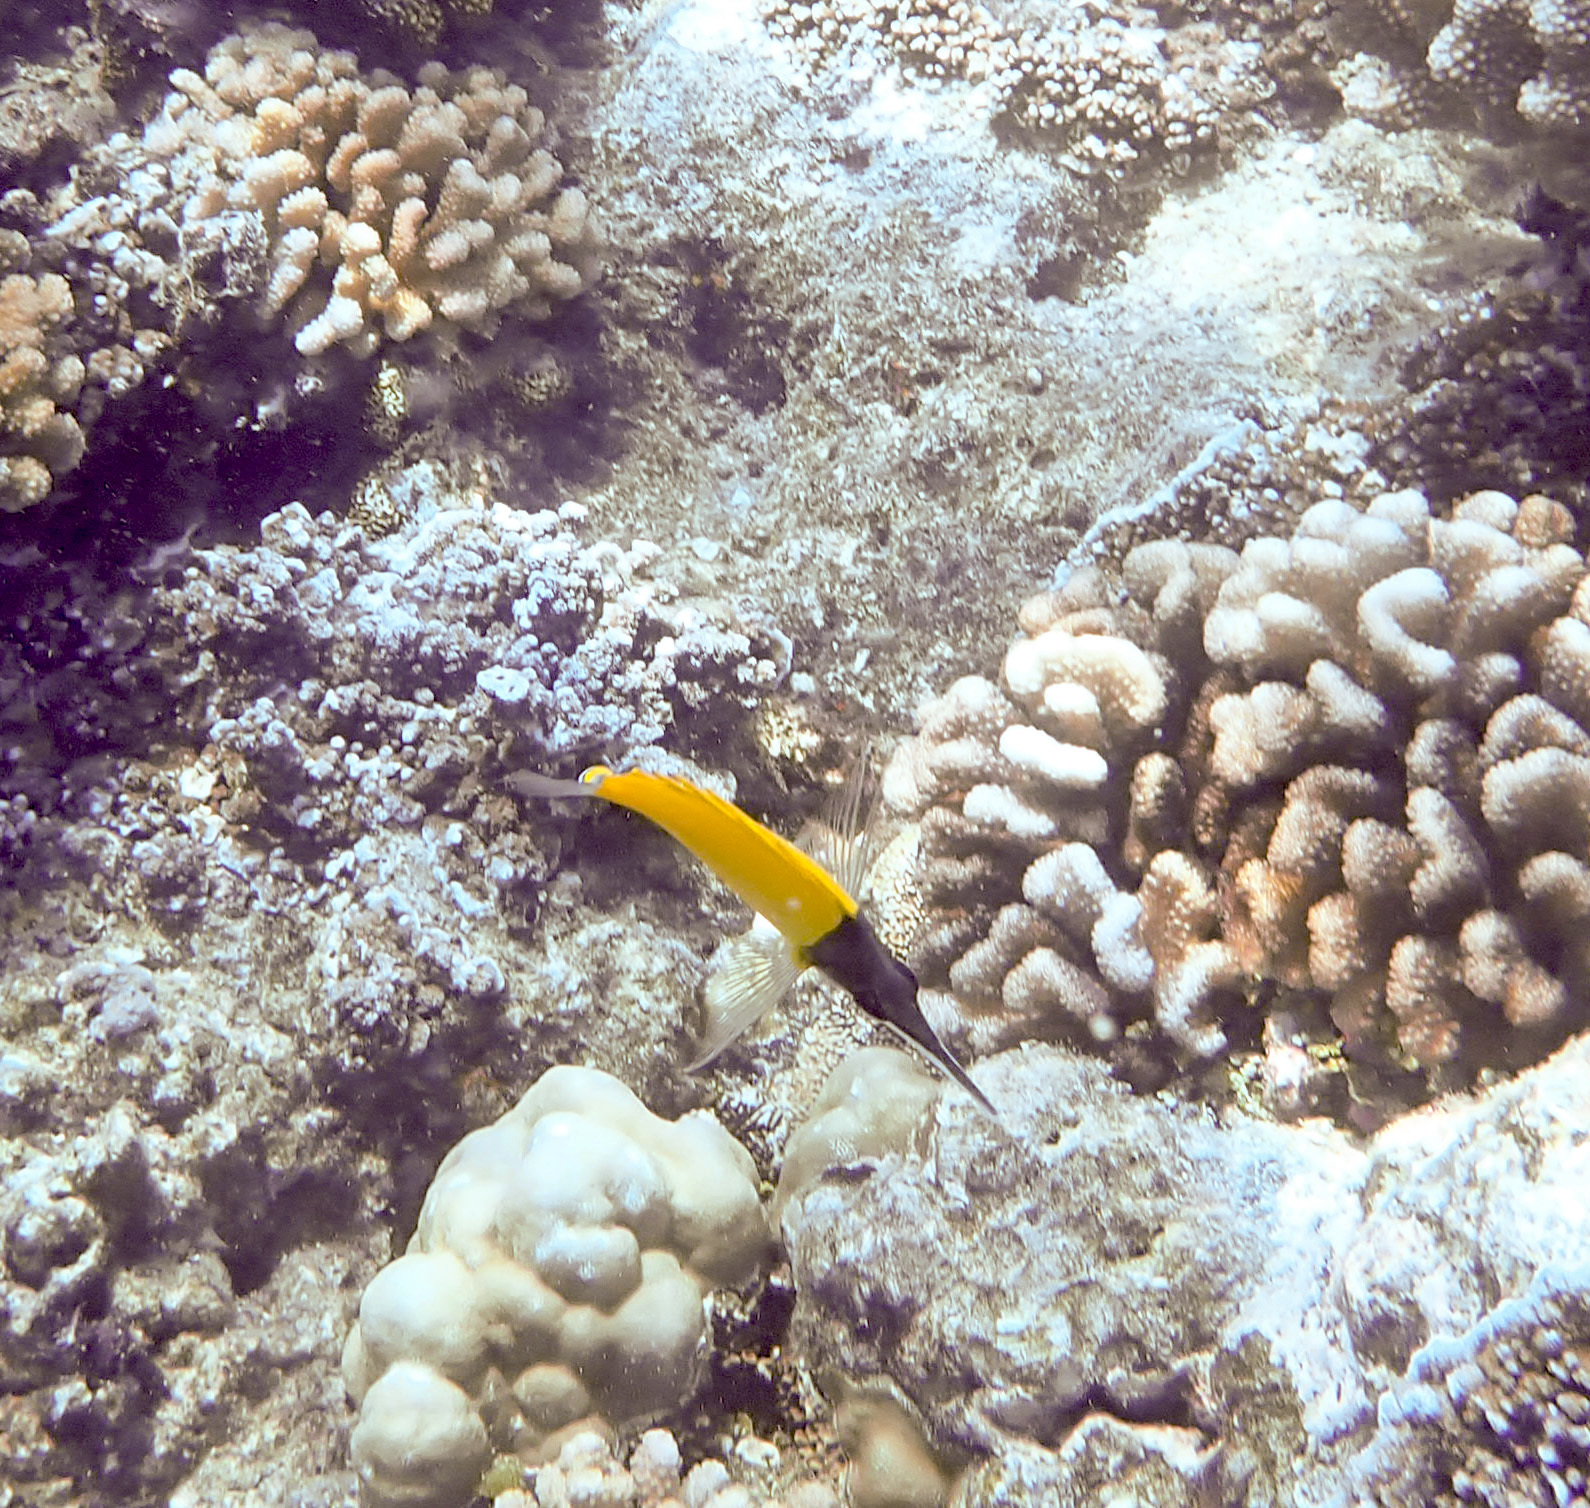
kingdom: Animalia
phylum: Chordata
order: Perciformes
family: Chaetodontidae
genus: Forcipiger
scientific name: Forcipiger flavissimus
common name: Forcepsfish
